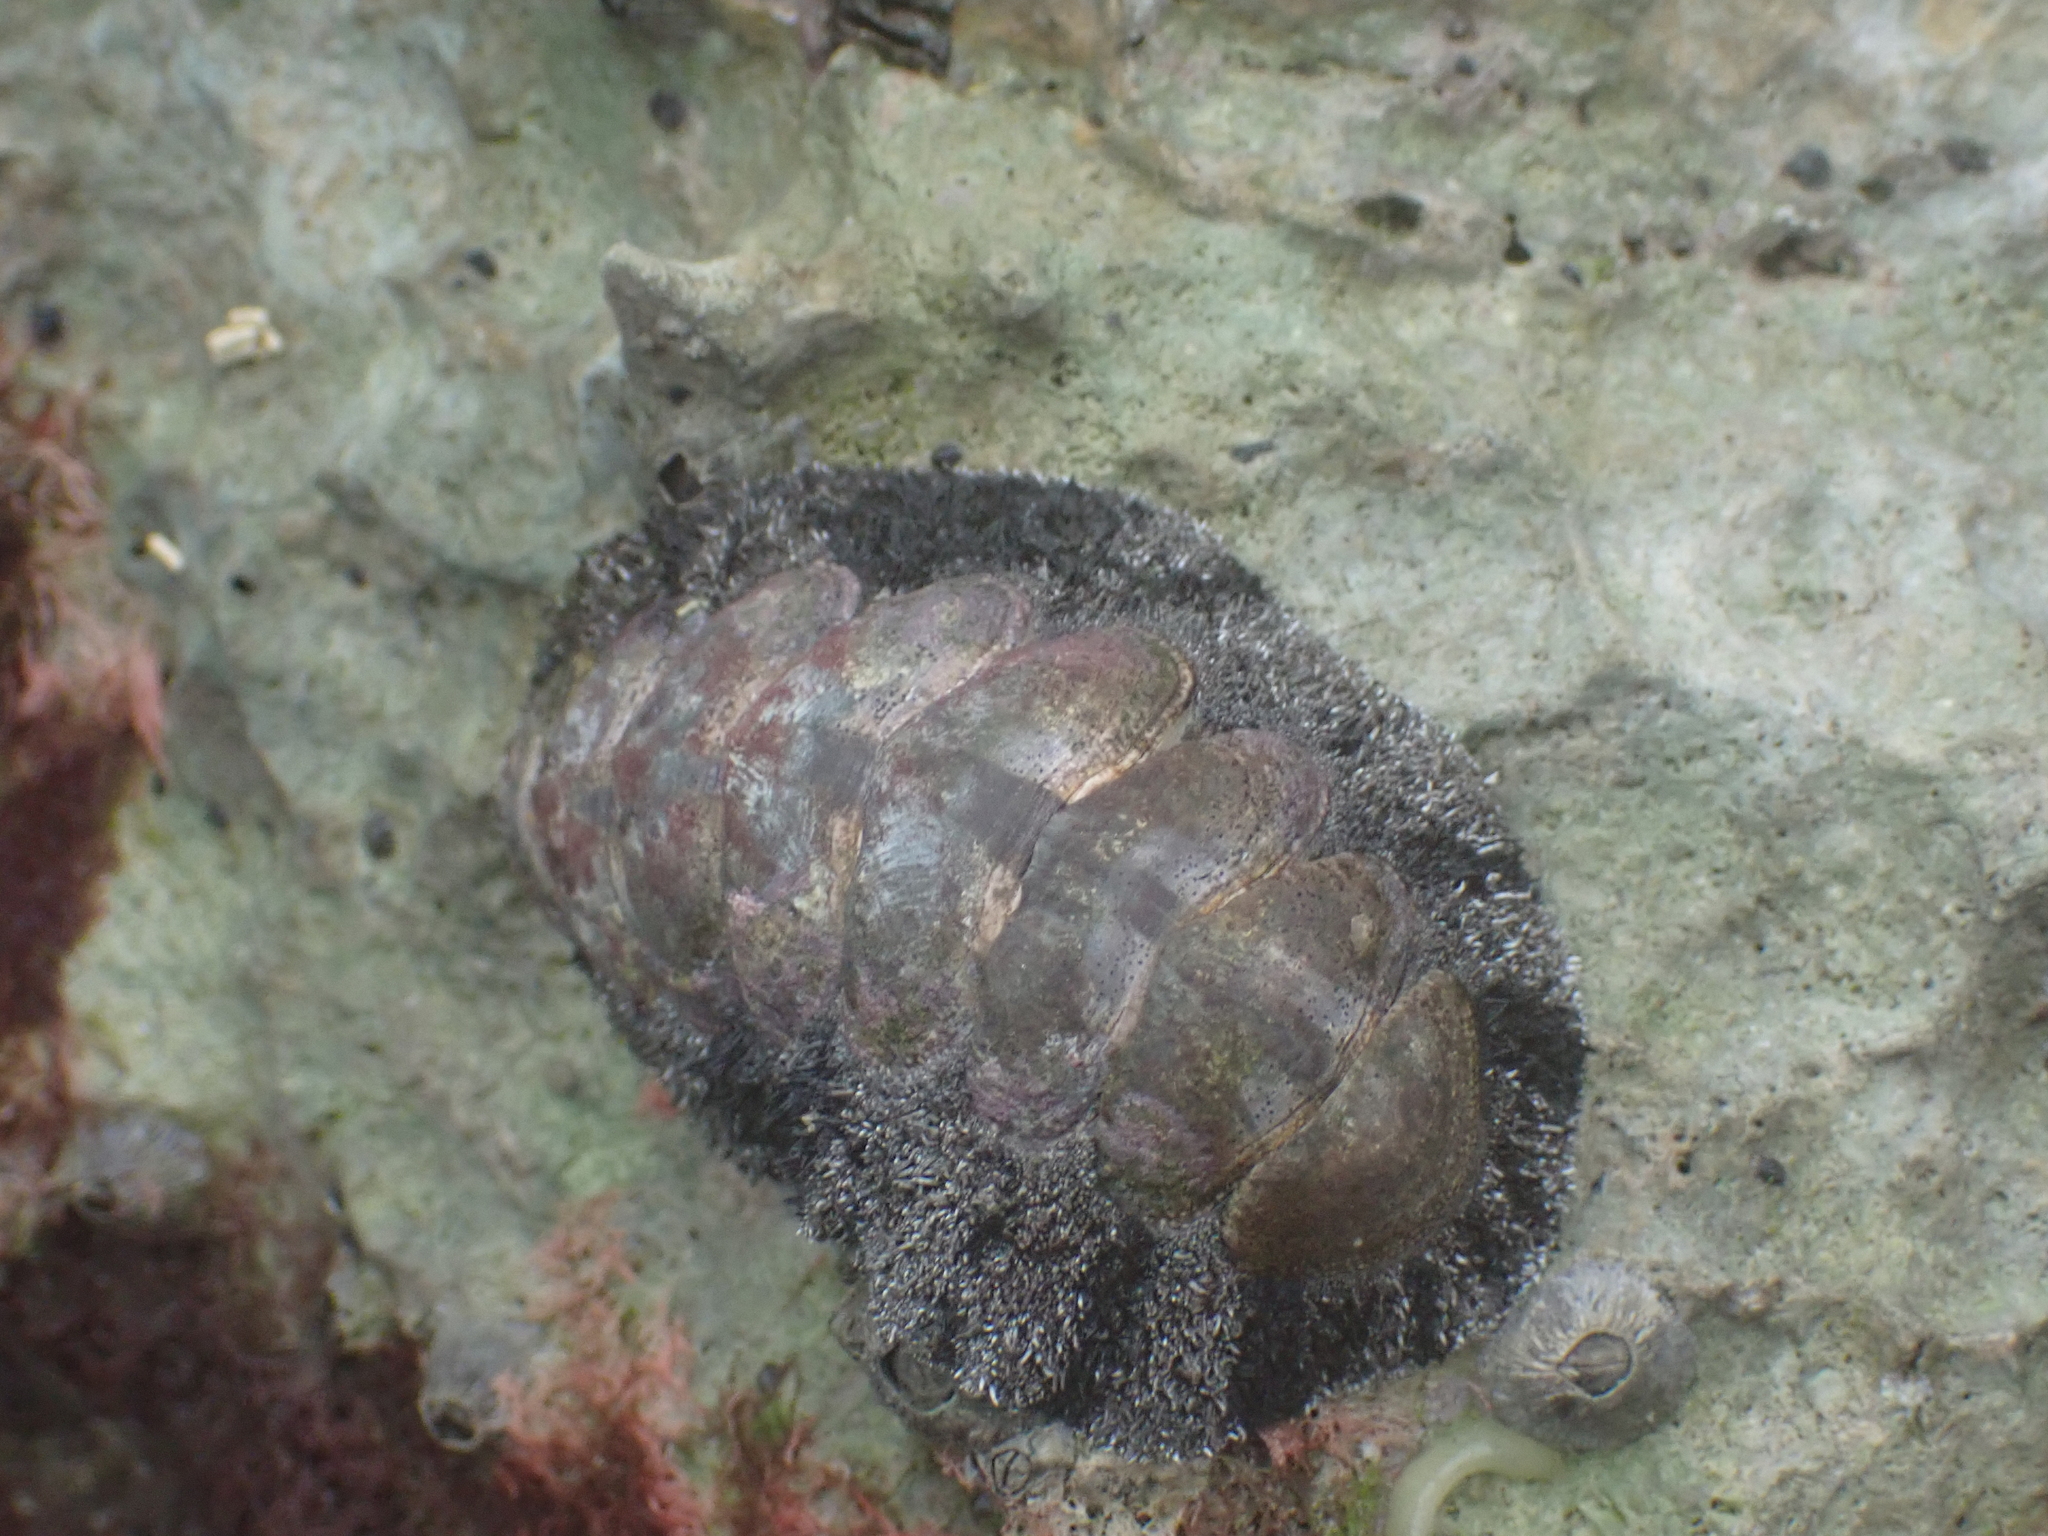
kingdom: Animalia
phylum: Mollusca
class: Polyplacophora
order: Chitonida
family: Chitonidae
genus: Acanthopleura
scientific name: Acanthopleura granulata
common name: West indian fuzzy chiton
